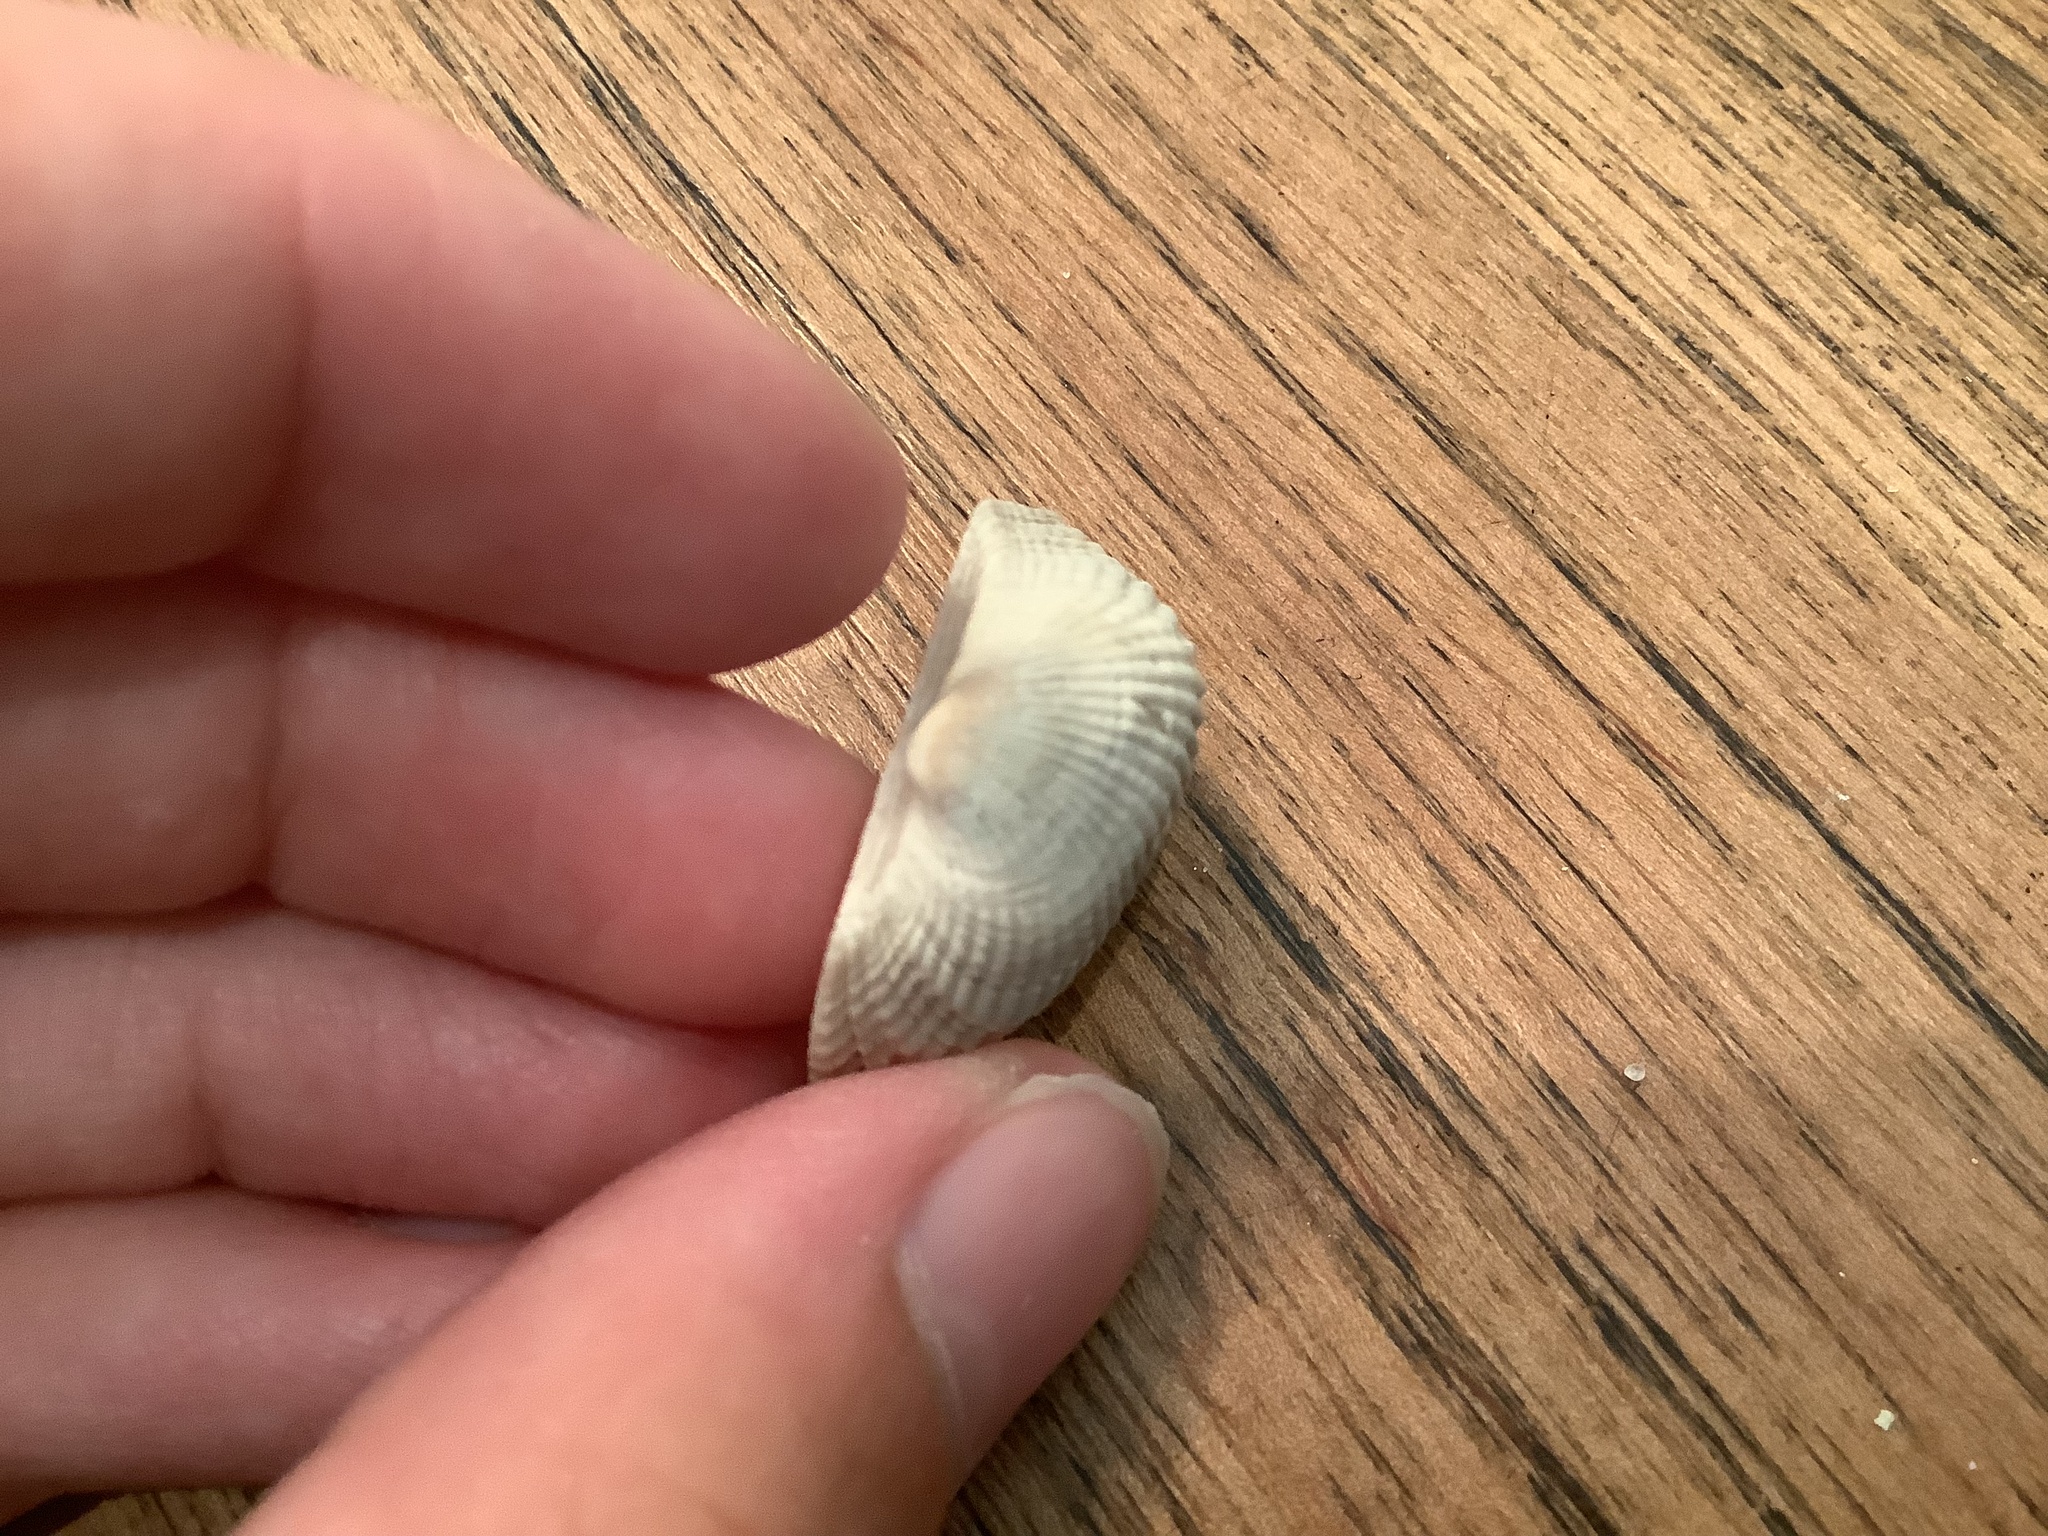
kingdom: Animalia
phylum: Mollusca
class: Bivalvia
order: Arcida
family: Arcidae
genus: Anadara
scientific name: Anadara transversa
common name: Transverse ark
